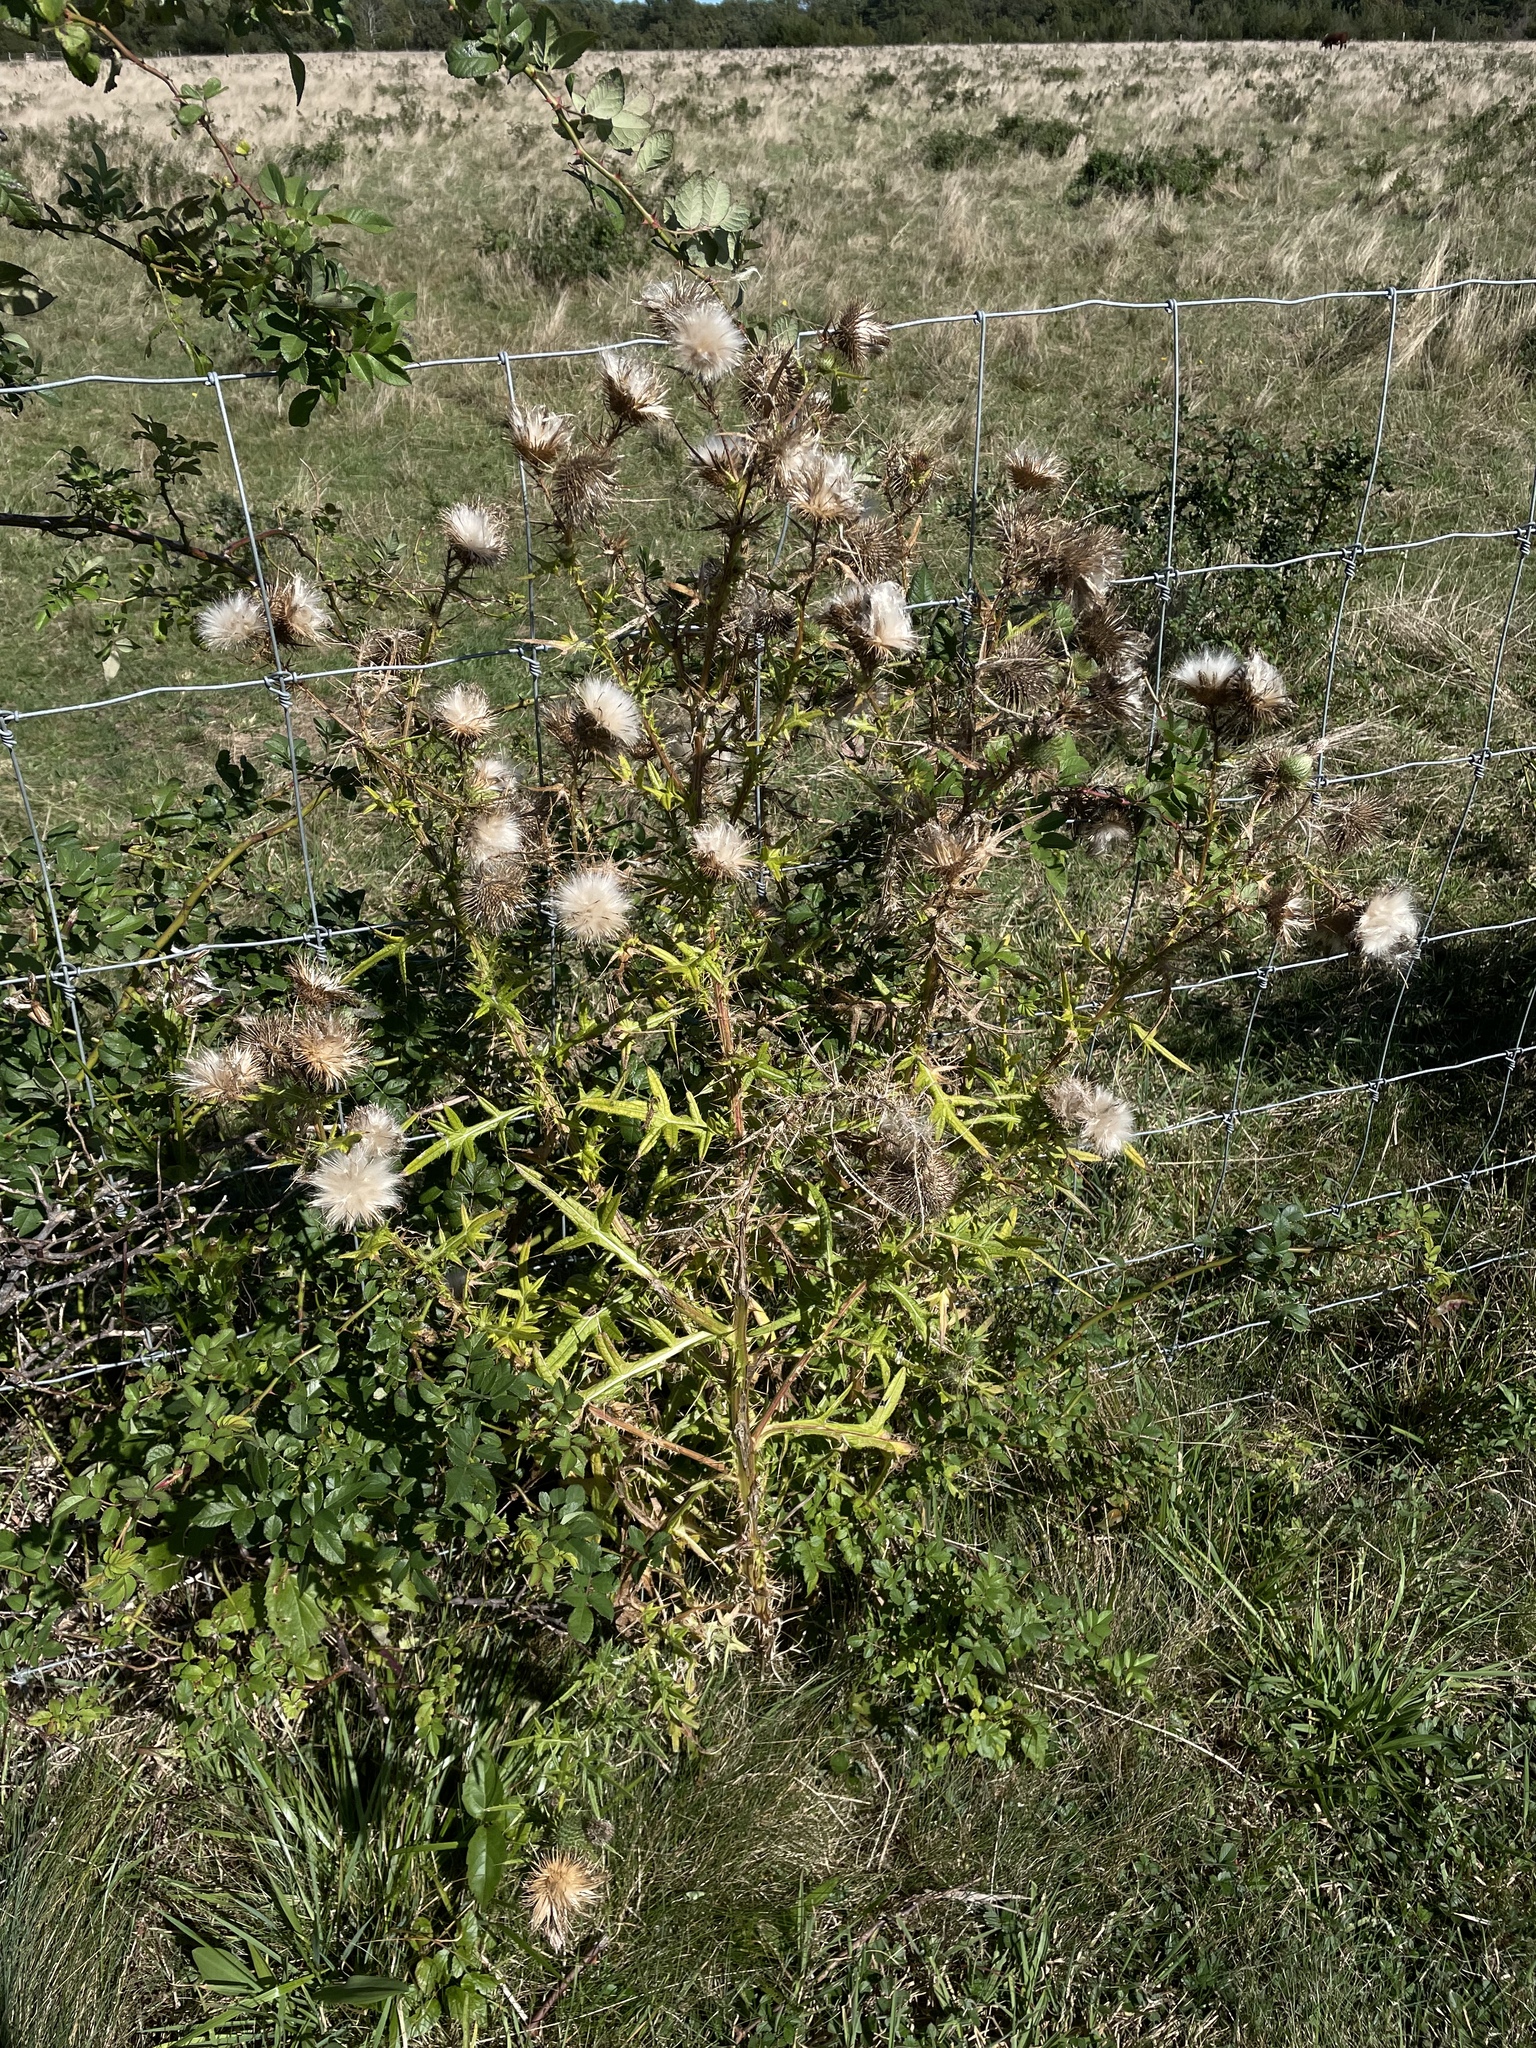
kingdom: Plantae
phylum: Tracheophyta
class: Magnoliopsida
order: Asterales
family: Asteraceae
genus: Cirsium
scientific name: Cirsium vulgare
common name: Bull thistle
